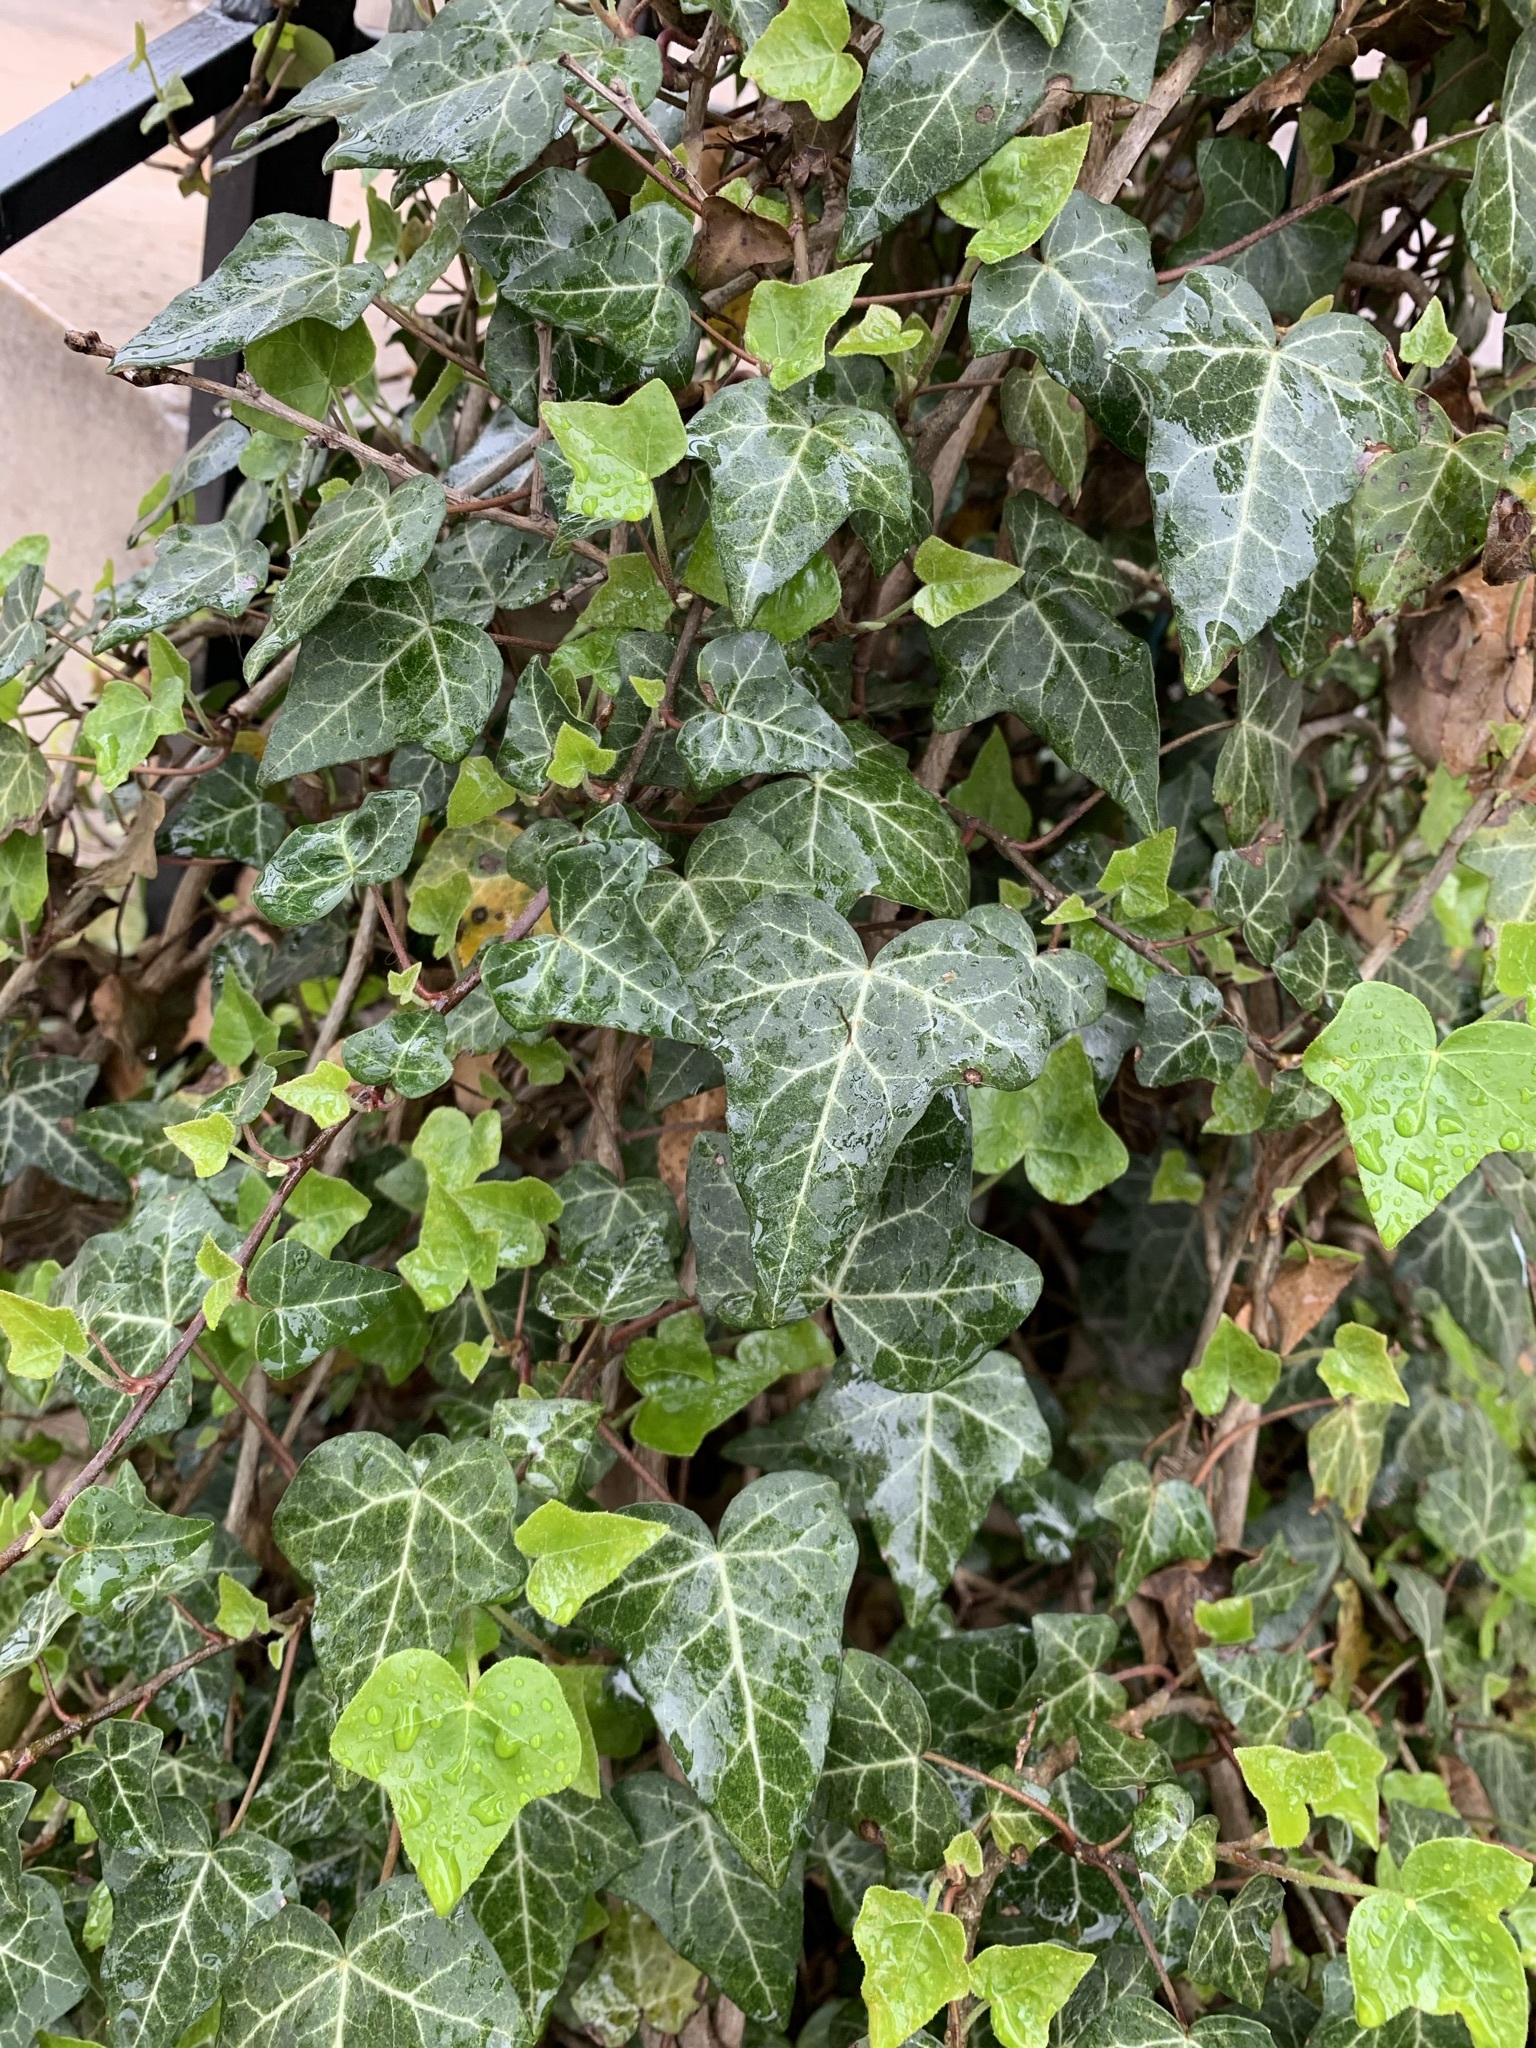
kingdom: Plantae
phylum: Tracheophyta
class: Magnoliopsida
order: Apiales
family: Araliaceae
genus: Hedera
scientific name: Hedera helix
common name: Ivy
